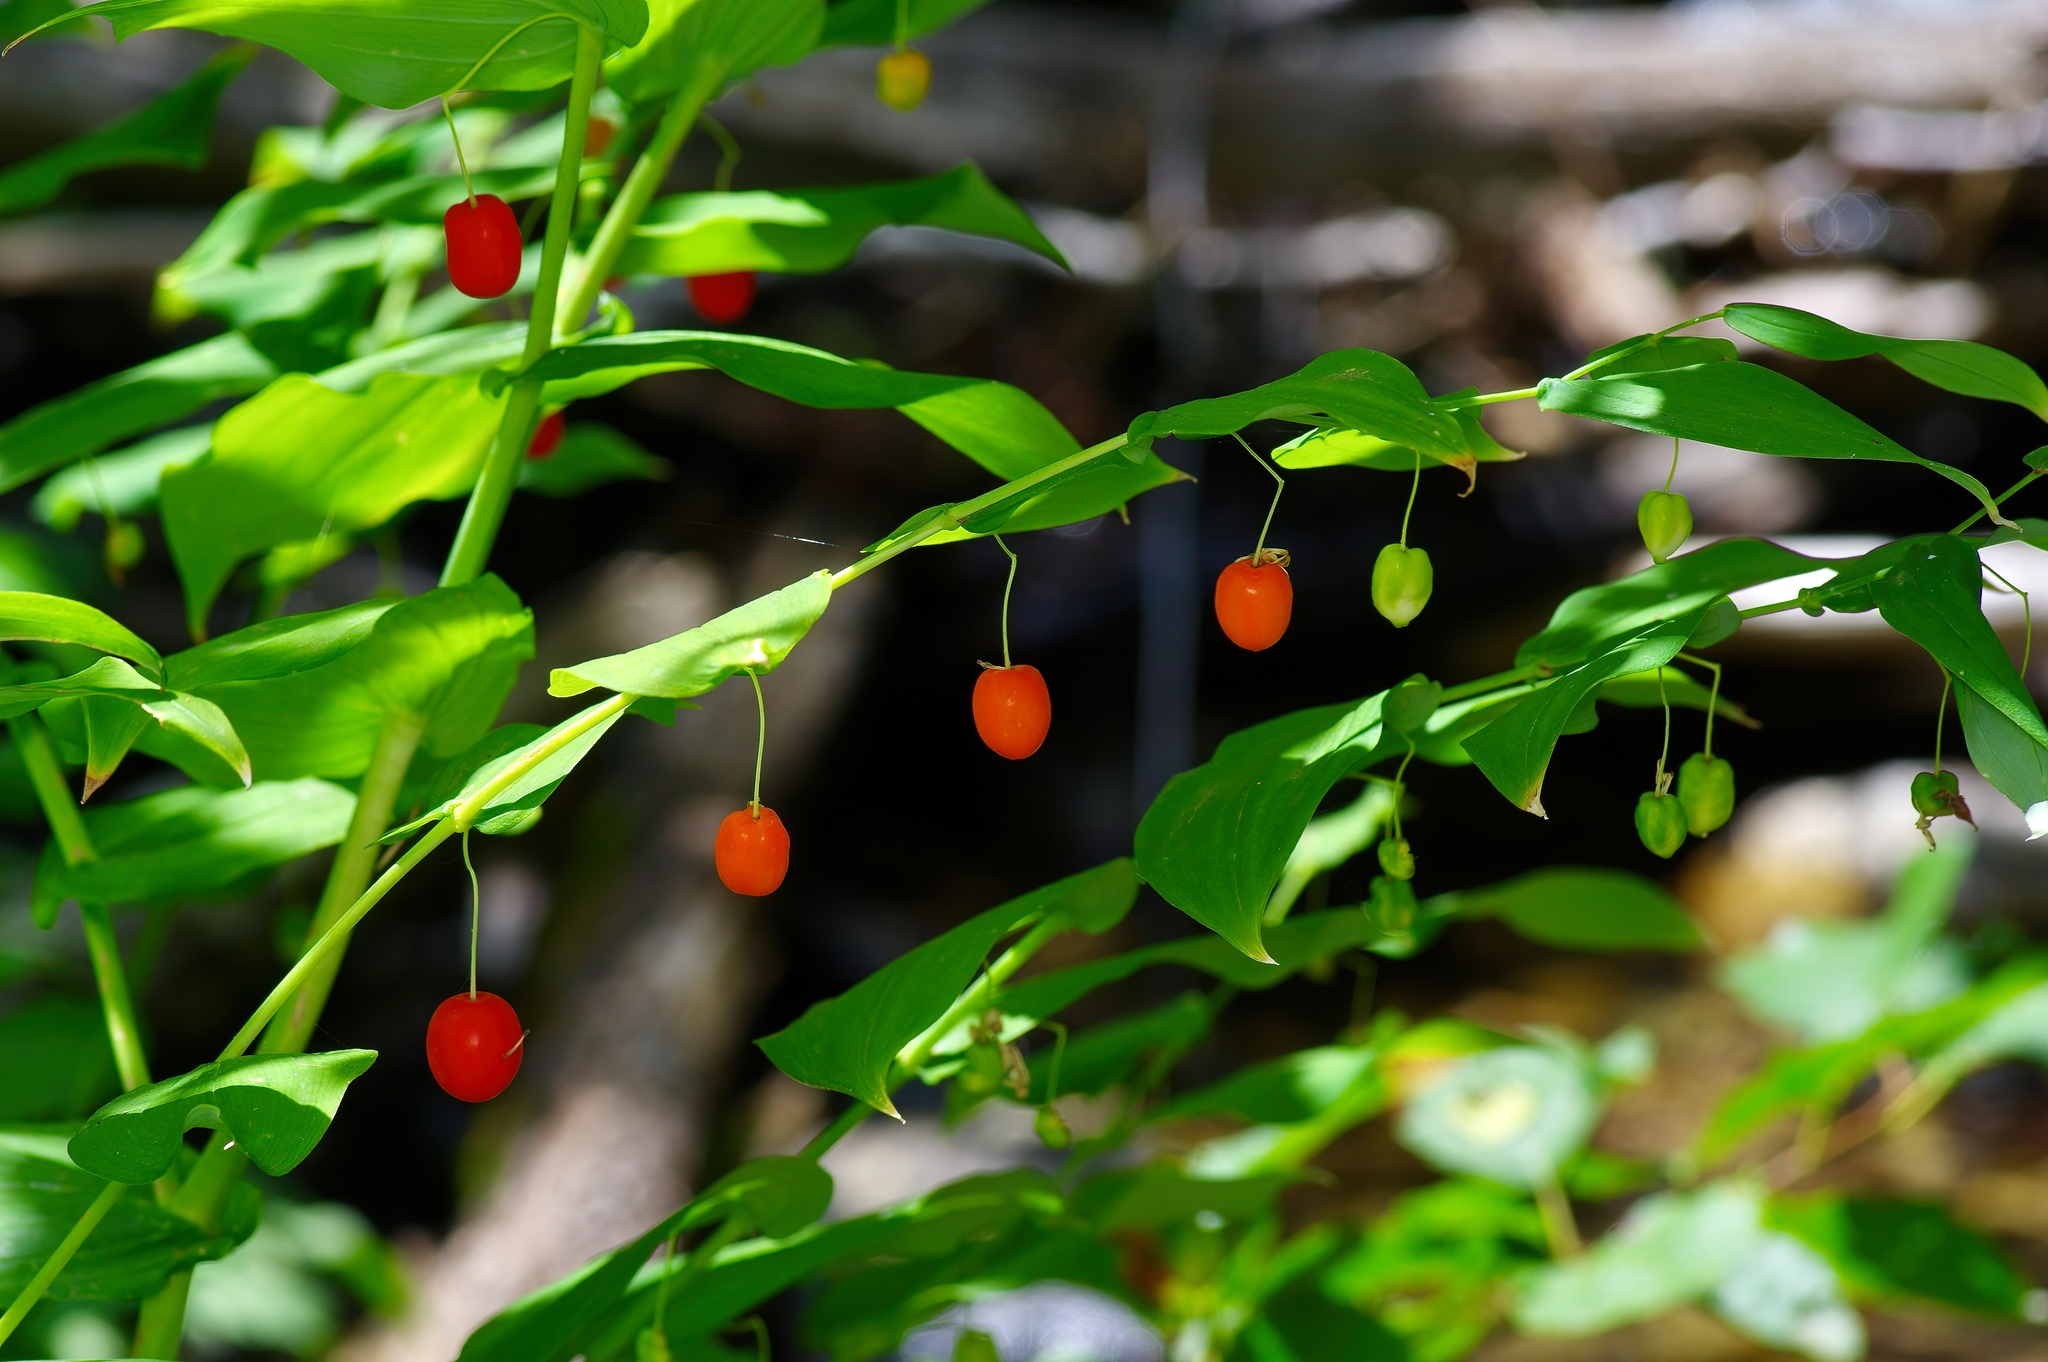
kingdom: Plantae
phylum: Tracheophyta
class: Liliopsida
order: Liliales
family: Liliaceae
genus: Streptopus
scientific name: Streptopus amplexifolius
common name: Clasp twisted stalk
